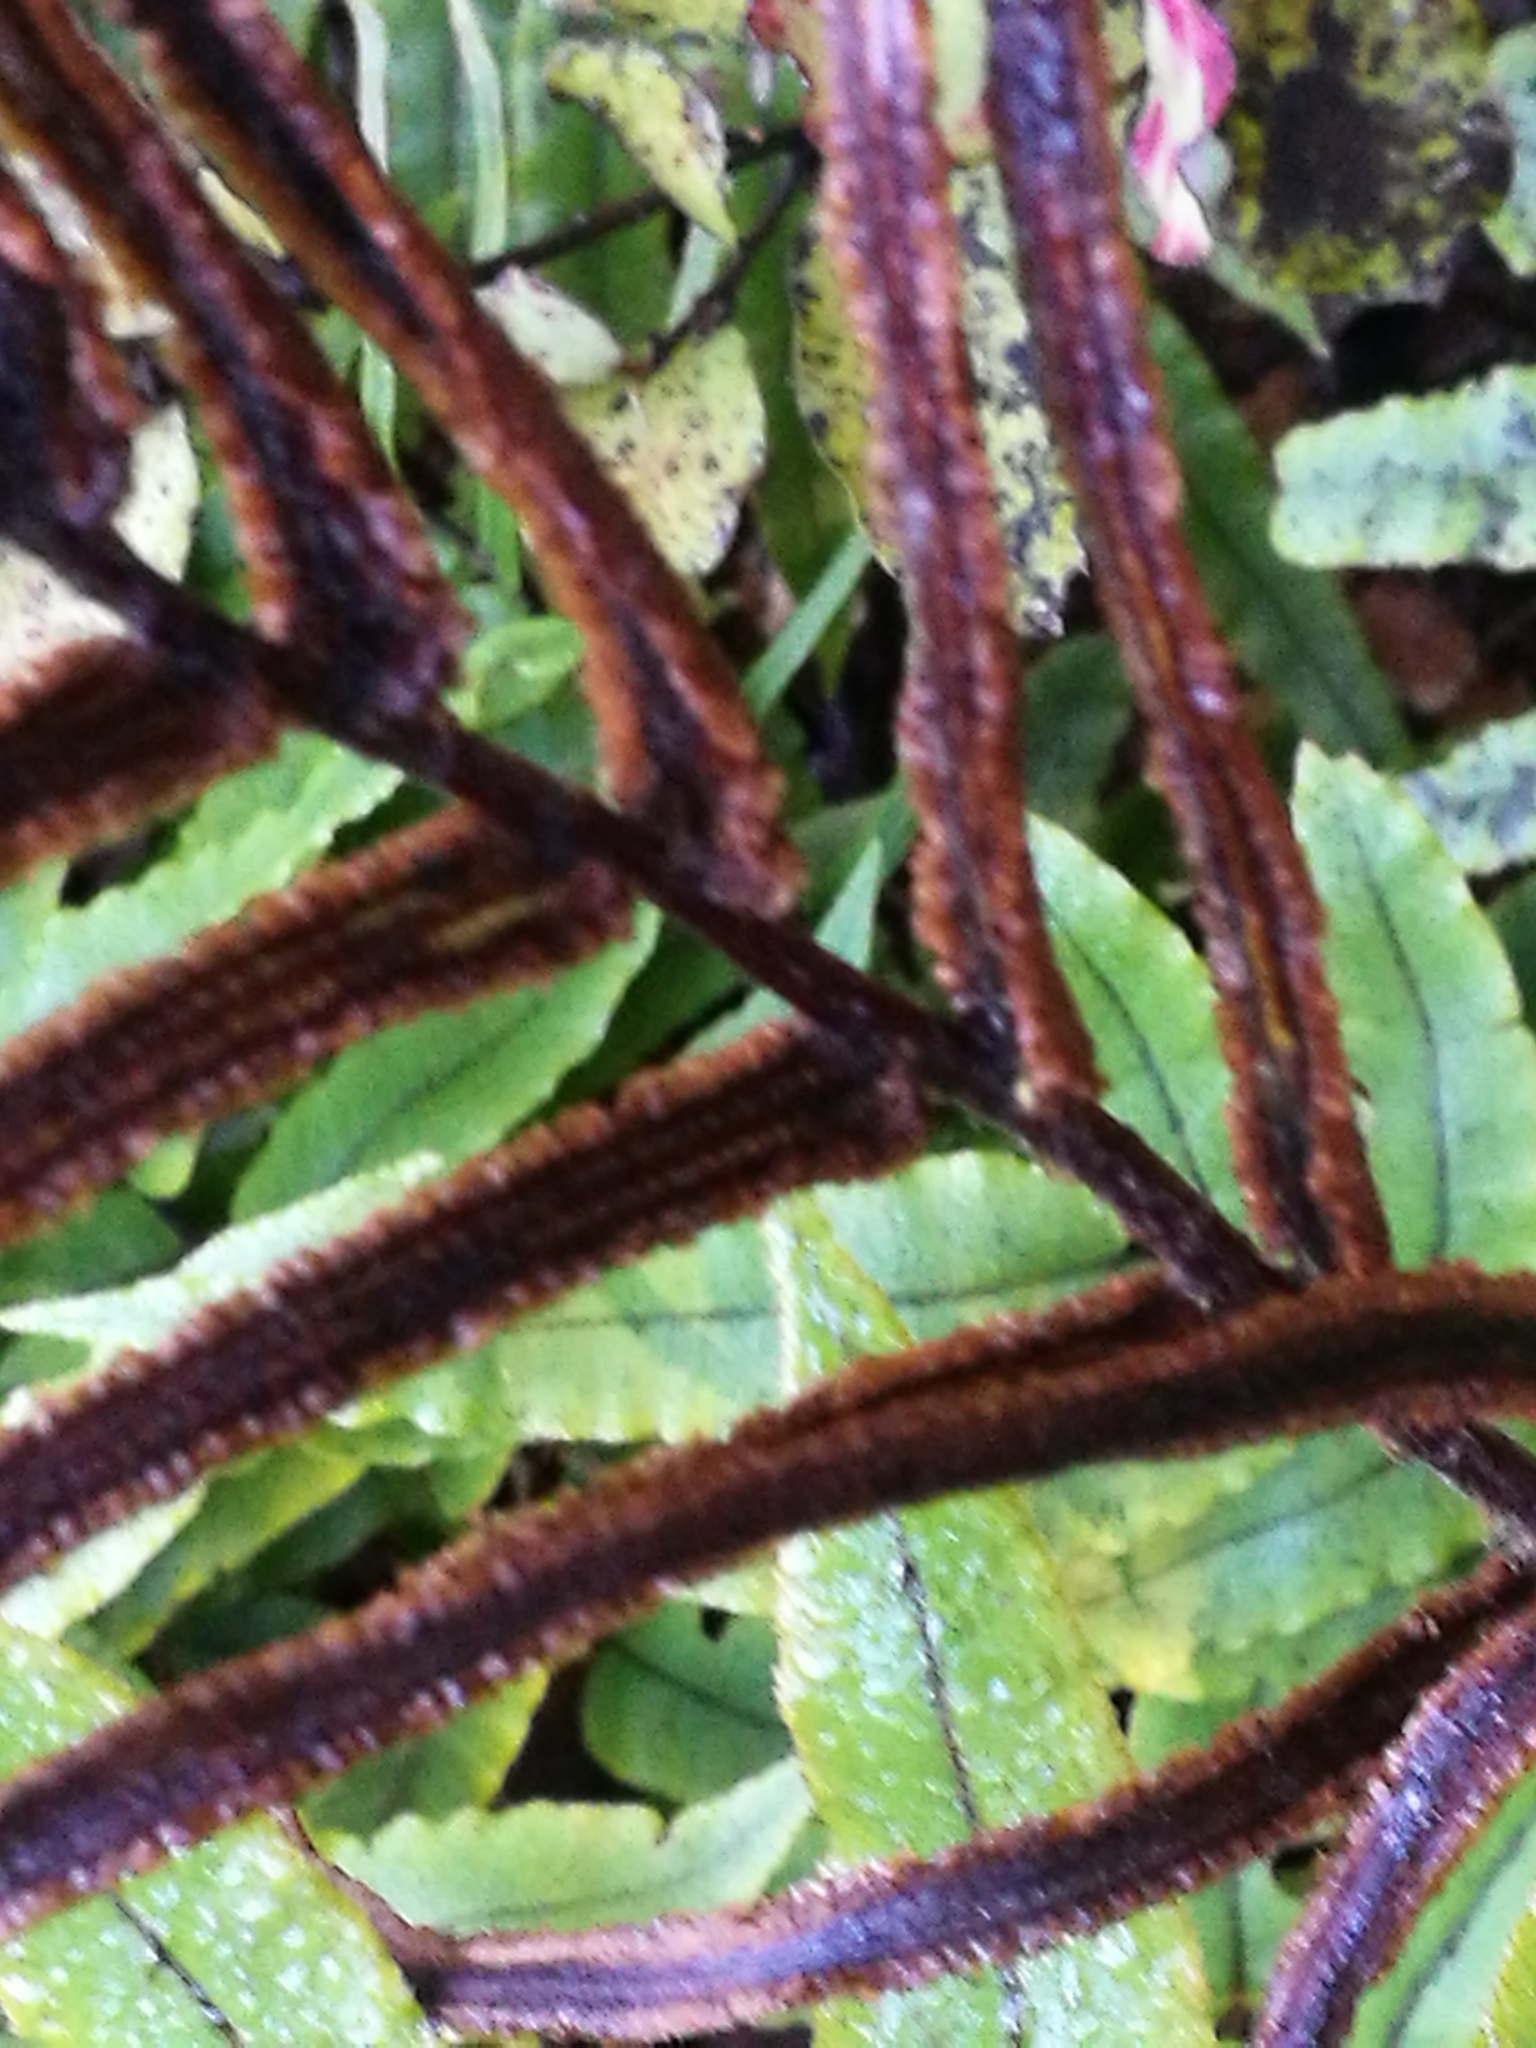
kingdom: Plantae
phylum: Tracheophyta
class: Polypodiopsida
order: Polypodiales
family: Blechnaceae
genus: Parablechnum
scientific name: Parablechnum procerum
